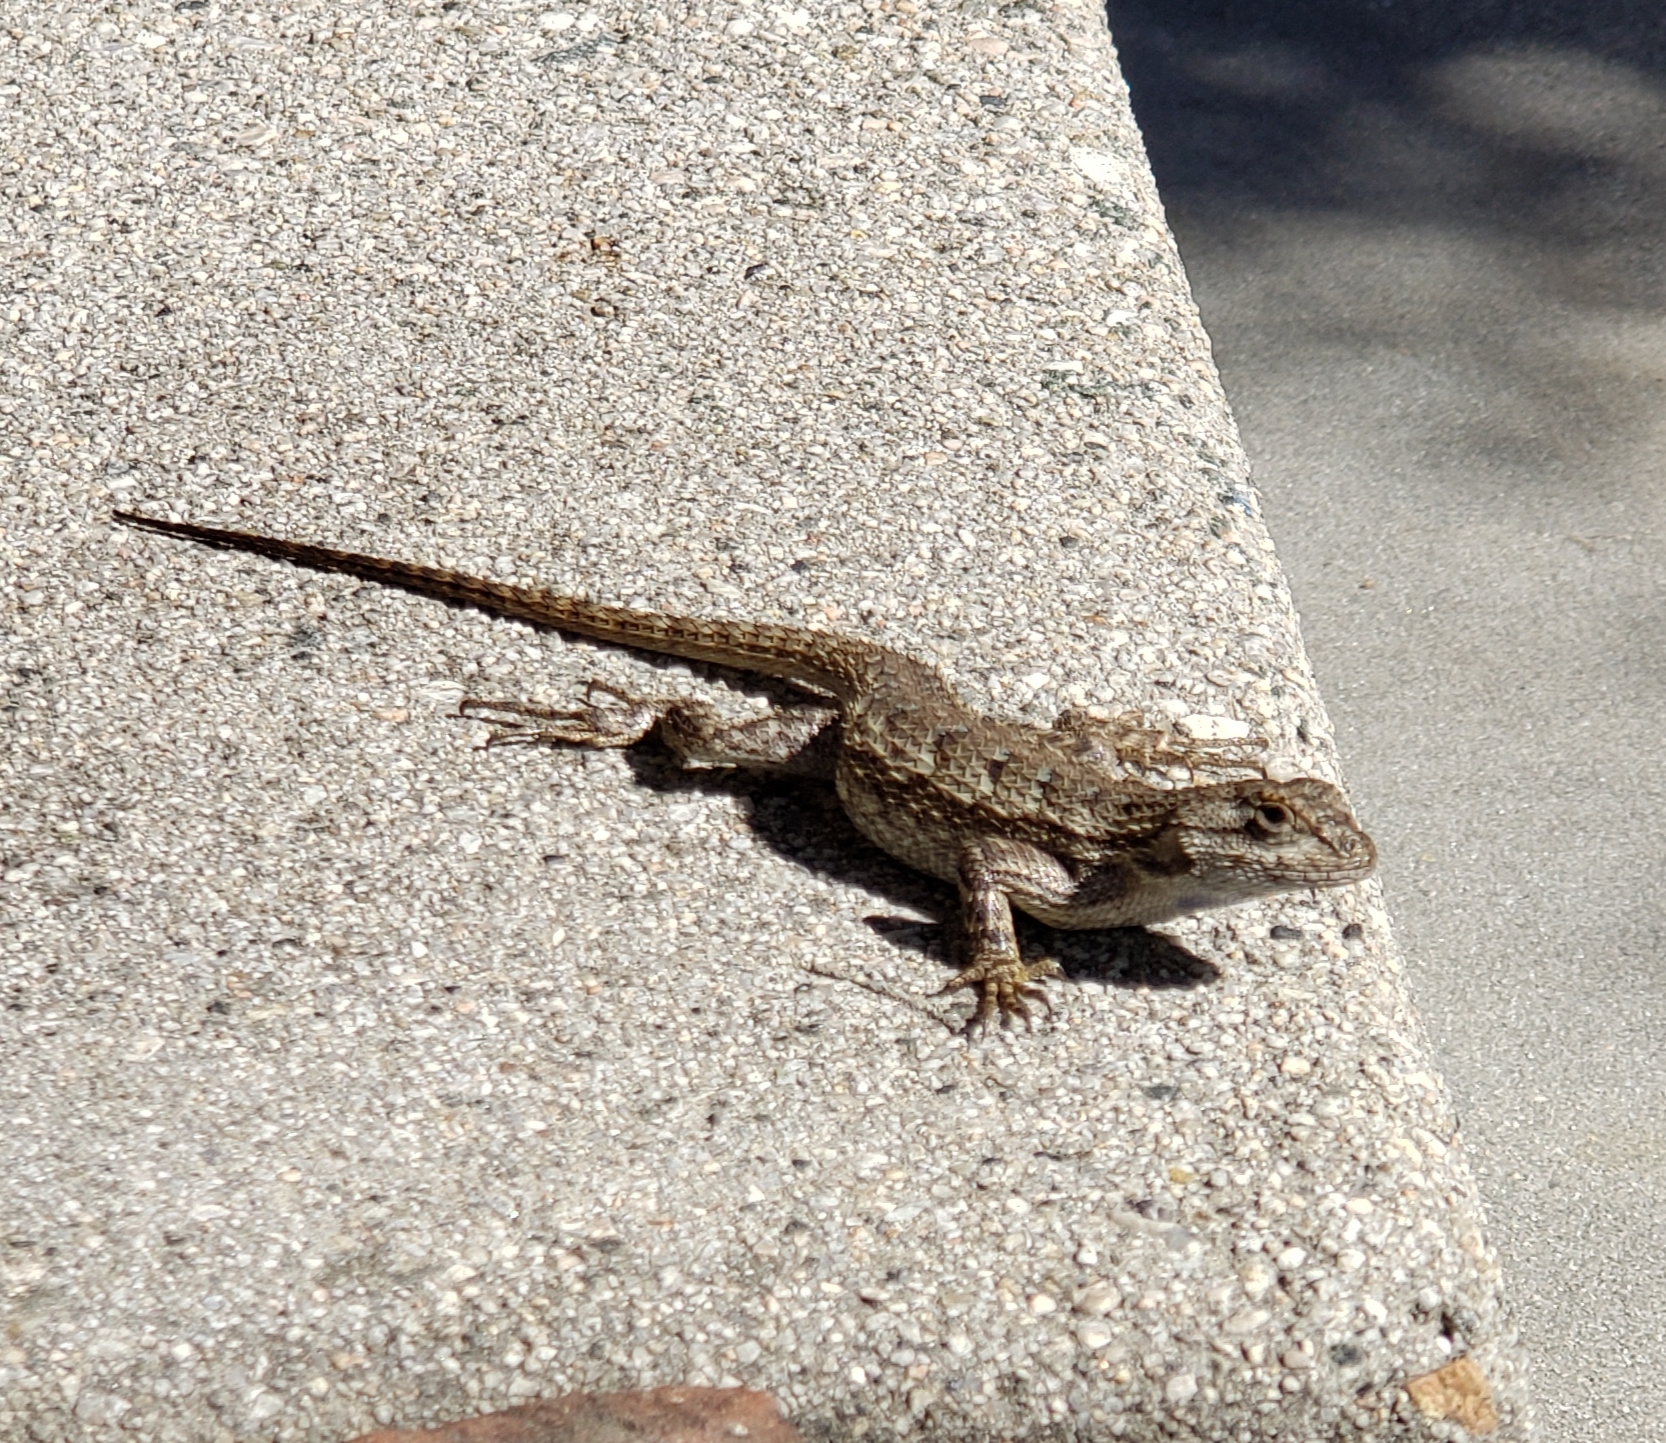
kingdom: Animalia
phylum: Chordata
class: Squamata
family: Phrynosomatidae
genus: Sceloporus
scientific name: Sceloporus occidentalis
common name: Western fence lizard
